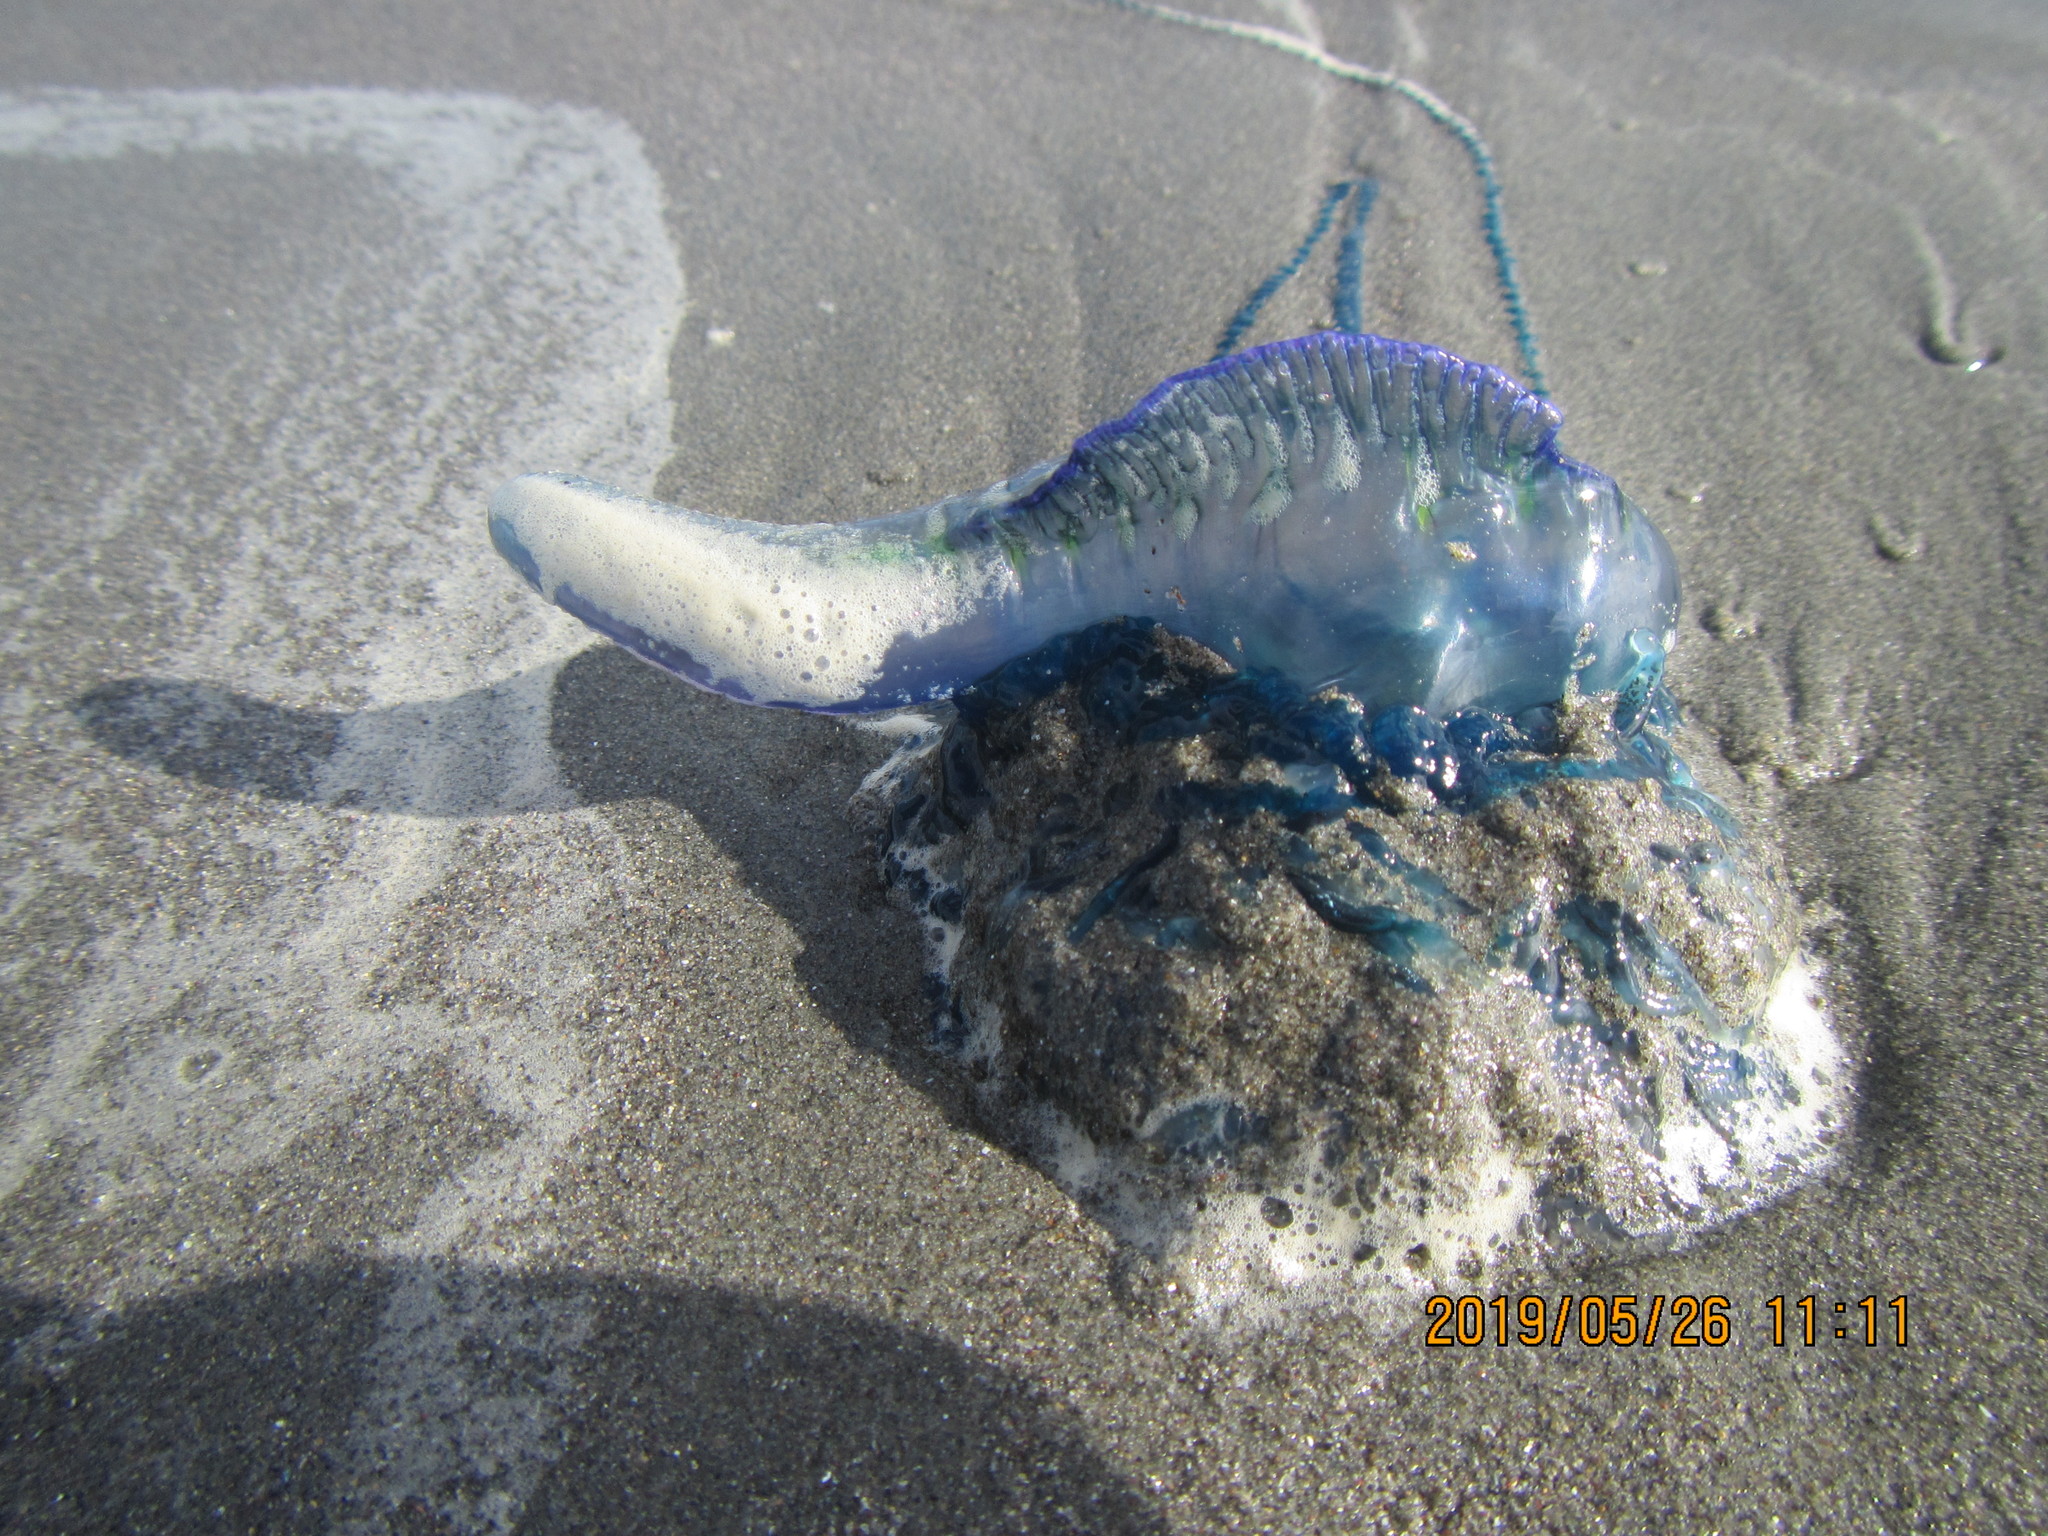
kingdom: Animalia
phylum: Cnidaria
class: Hydrozoa
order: Siphonophorae
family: Physaliidae
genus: Physalia
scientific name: Physalia physalis
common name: Portuguese man-of-war
